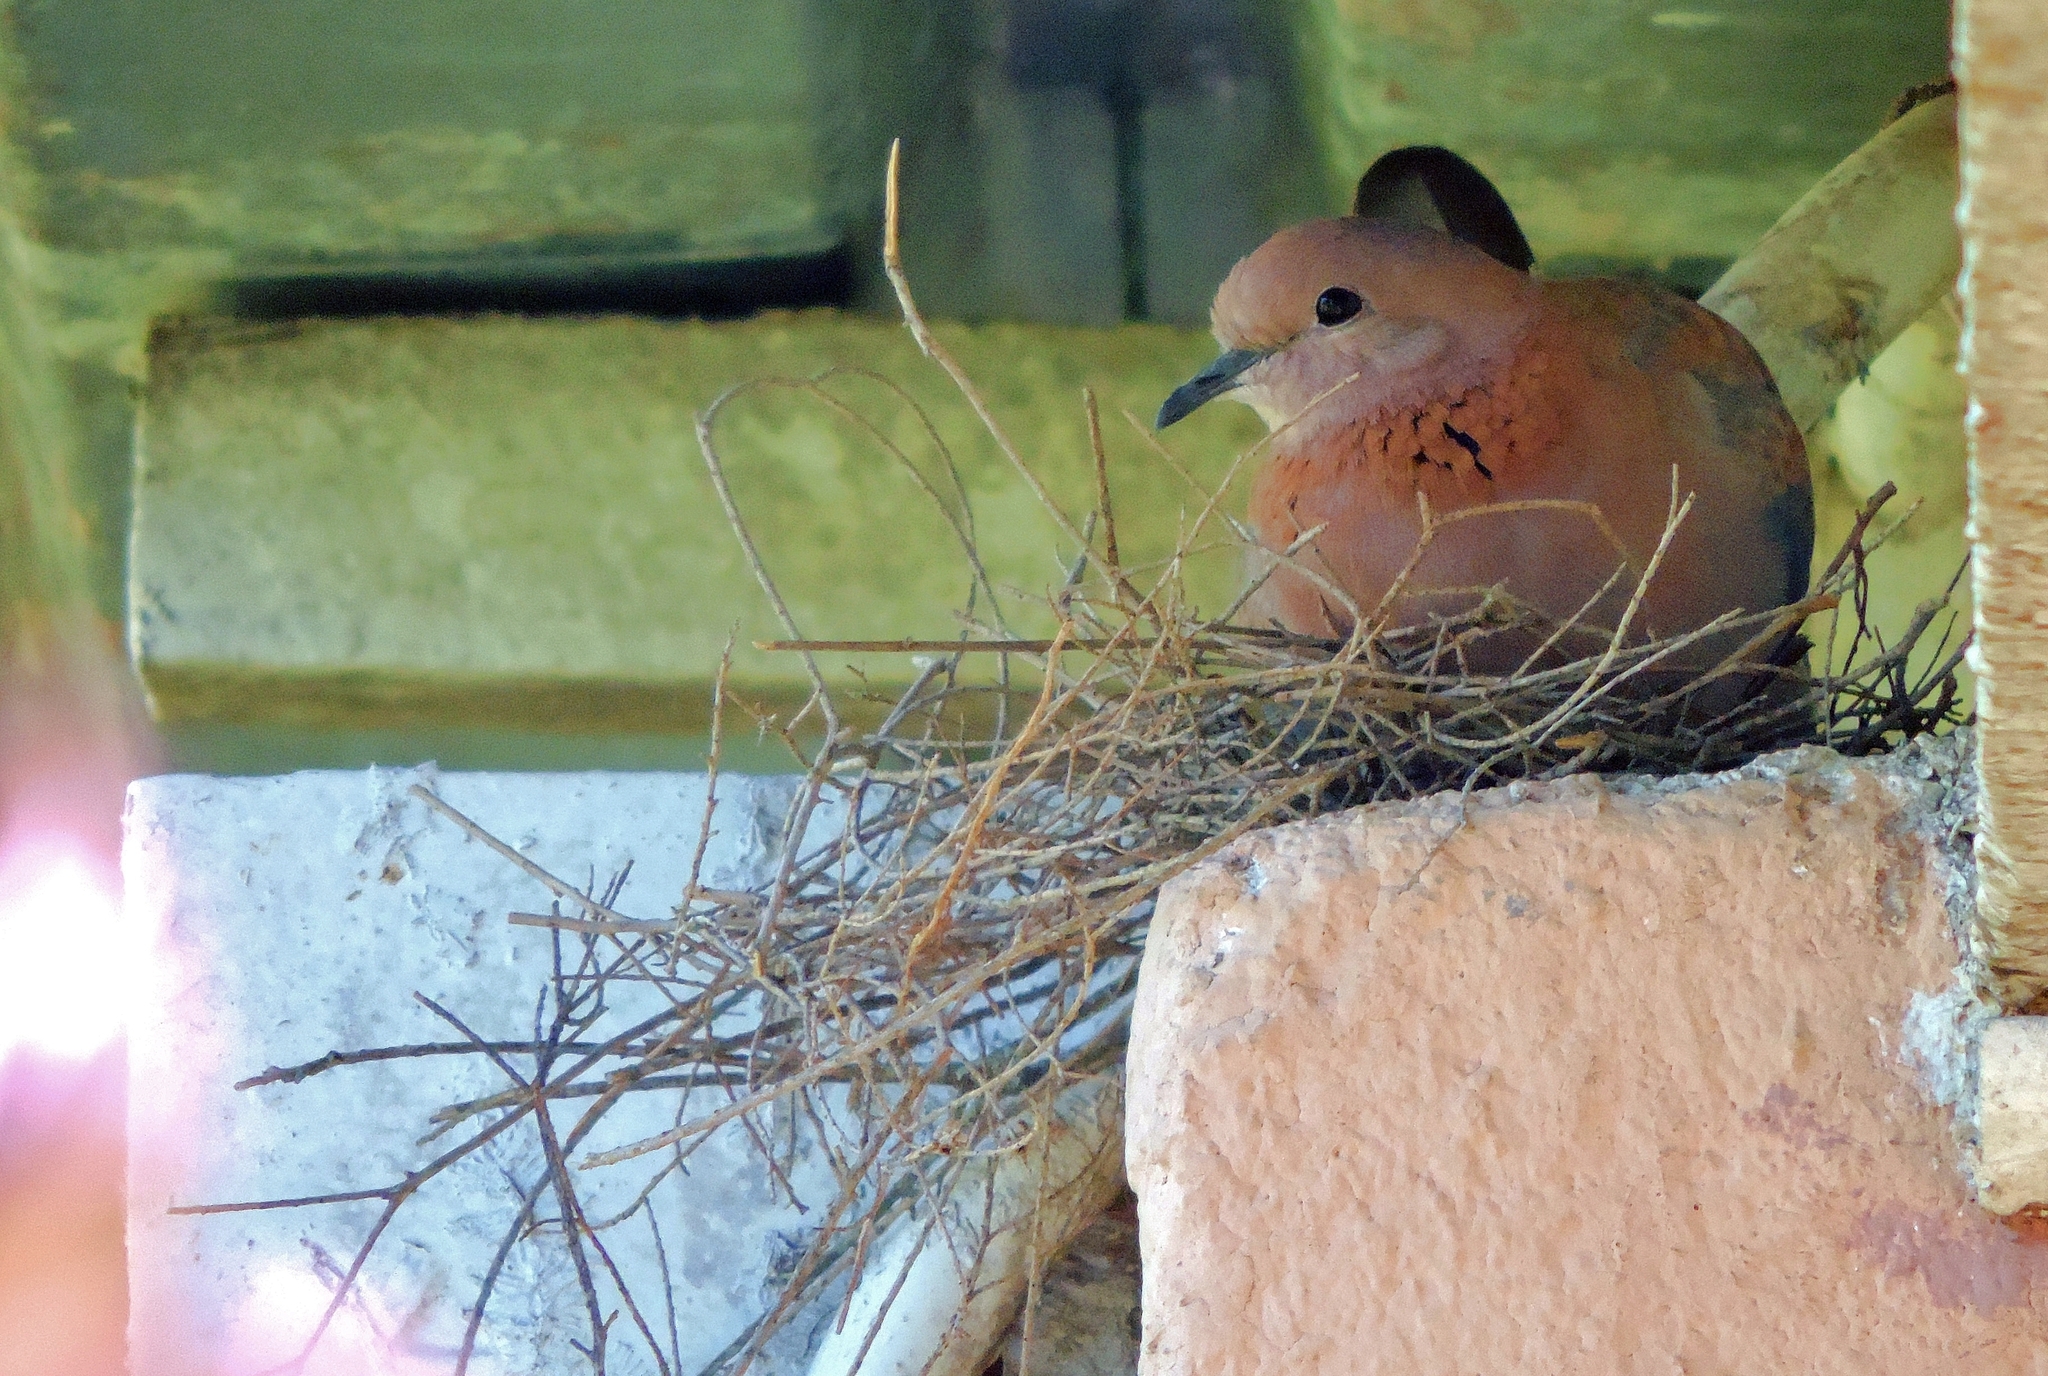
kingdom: Animalia
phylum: Chordata
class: Aves
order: Columbiformes
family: Columbidae
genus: Spilopelia
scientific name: Spilopelia senegalensis
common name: Laughing dove
